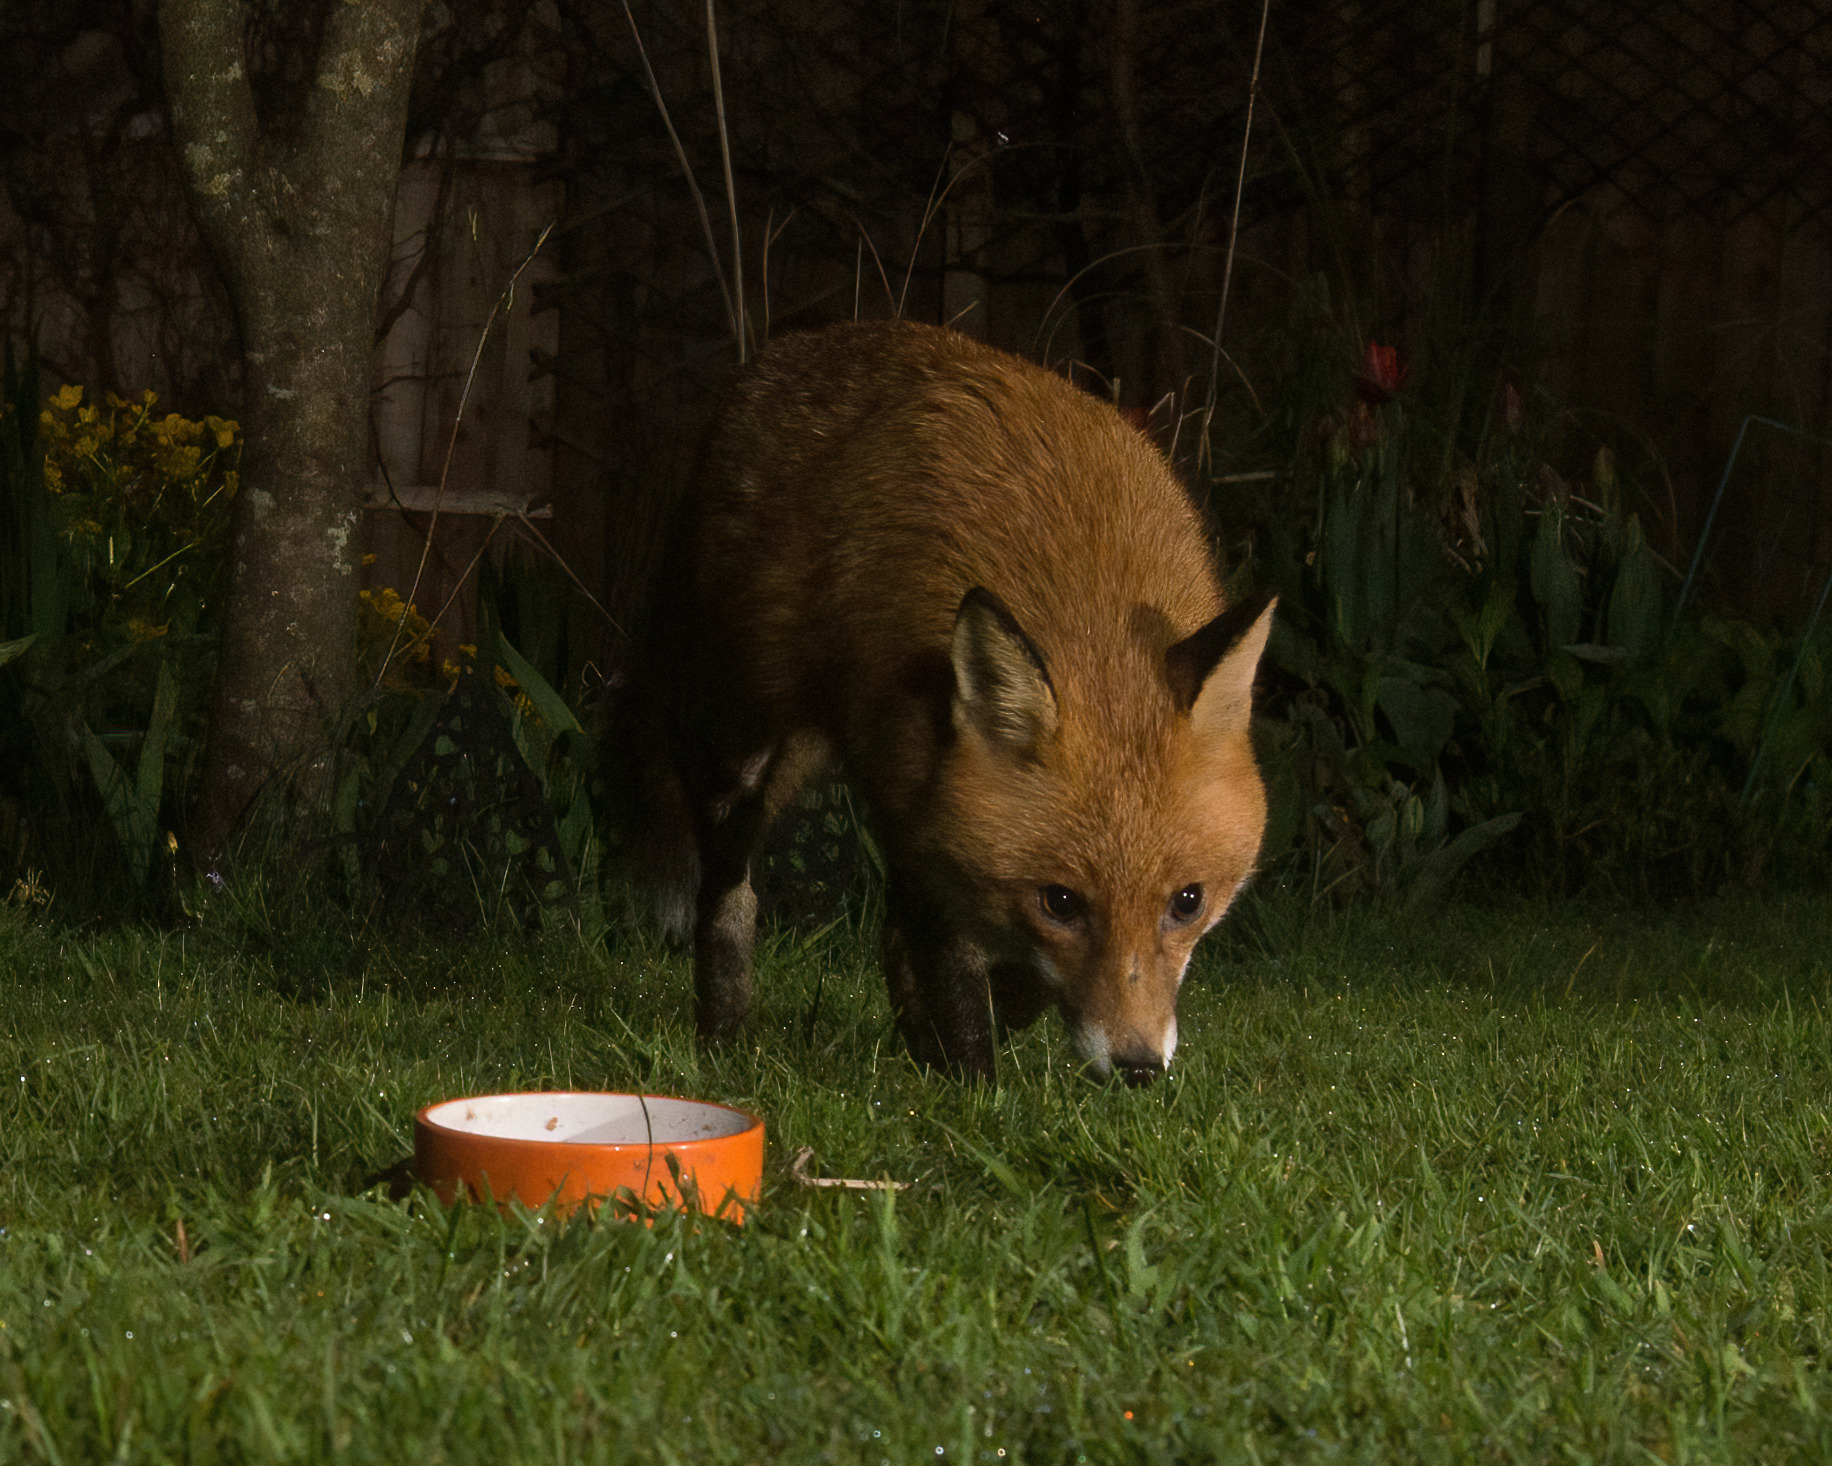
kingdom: Animalia
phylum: Chordata
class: Mammalia
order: Carnivora
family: Canidae
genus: Vulpes
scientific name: Vulpes vulpes
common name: Red fox
